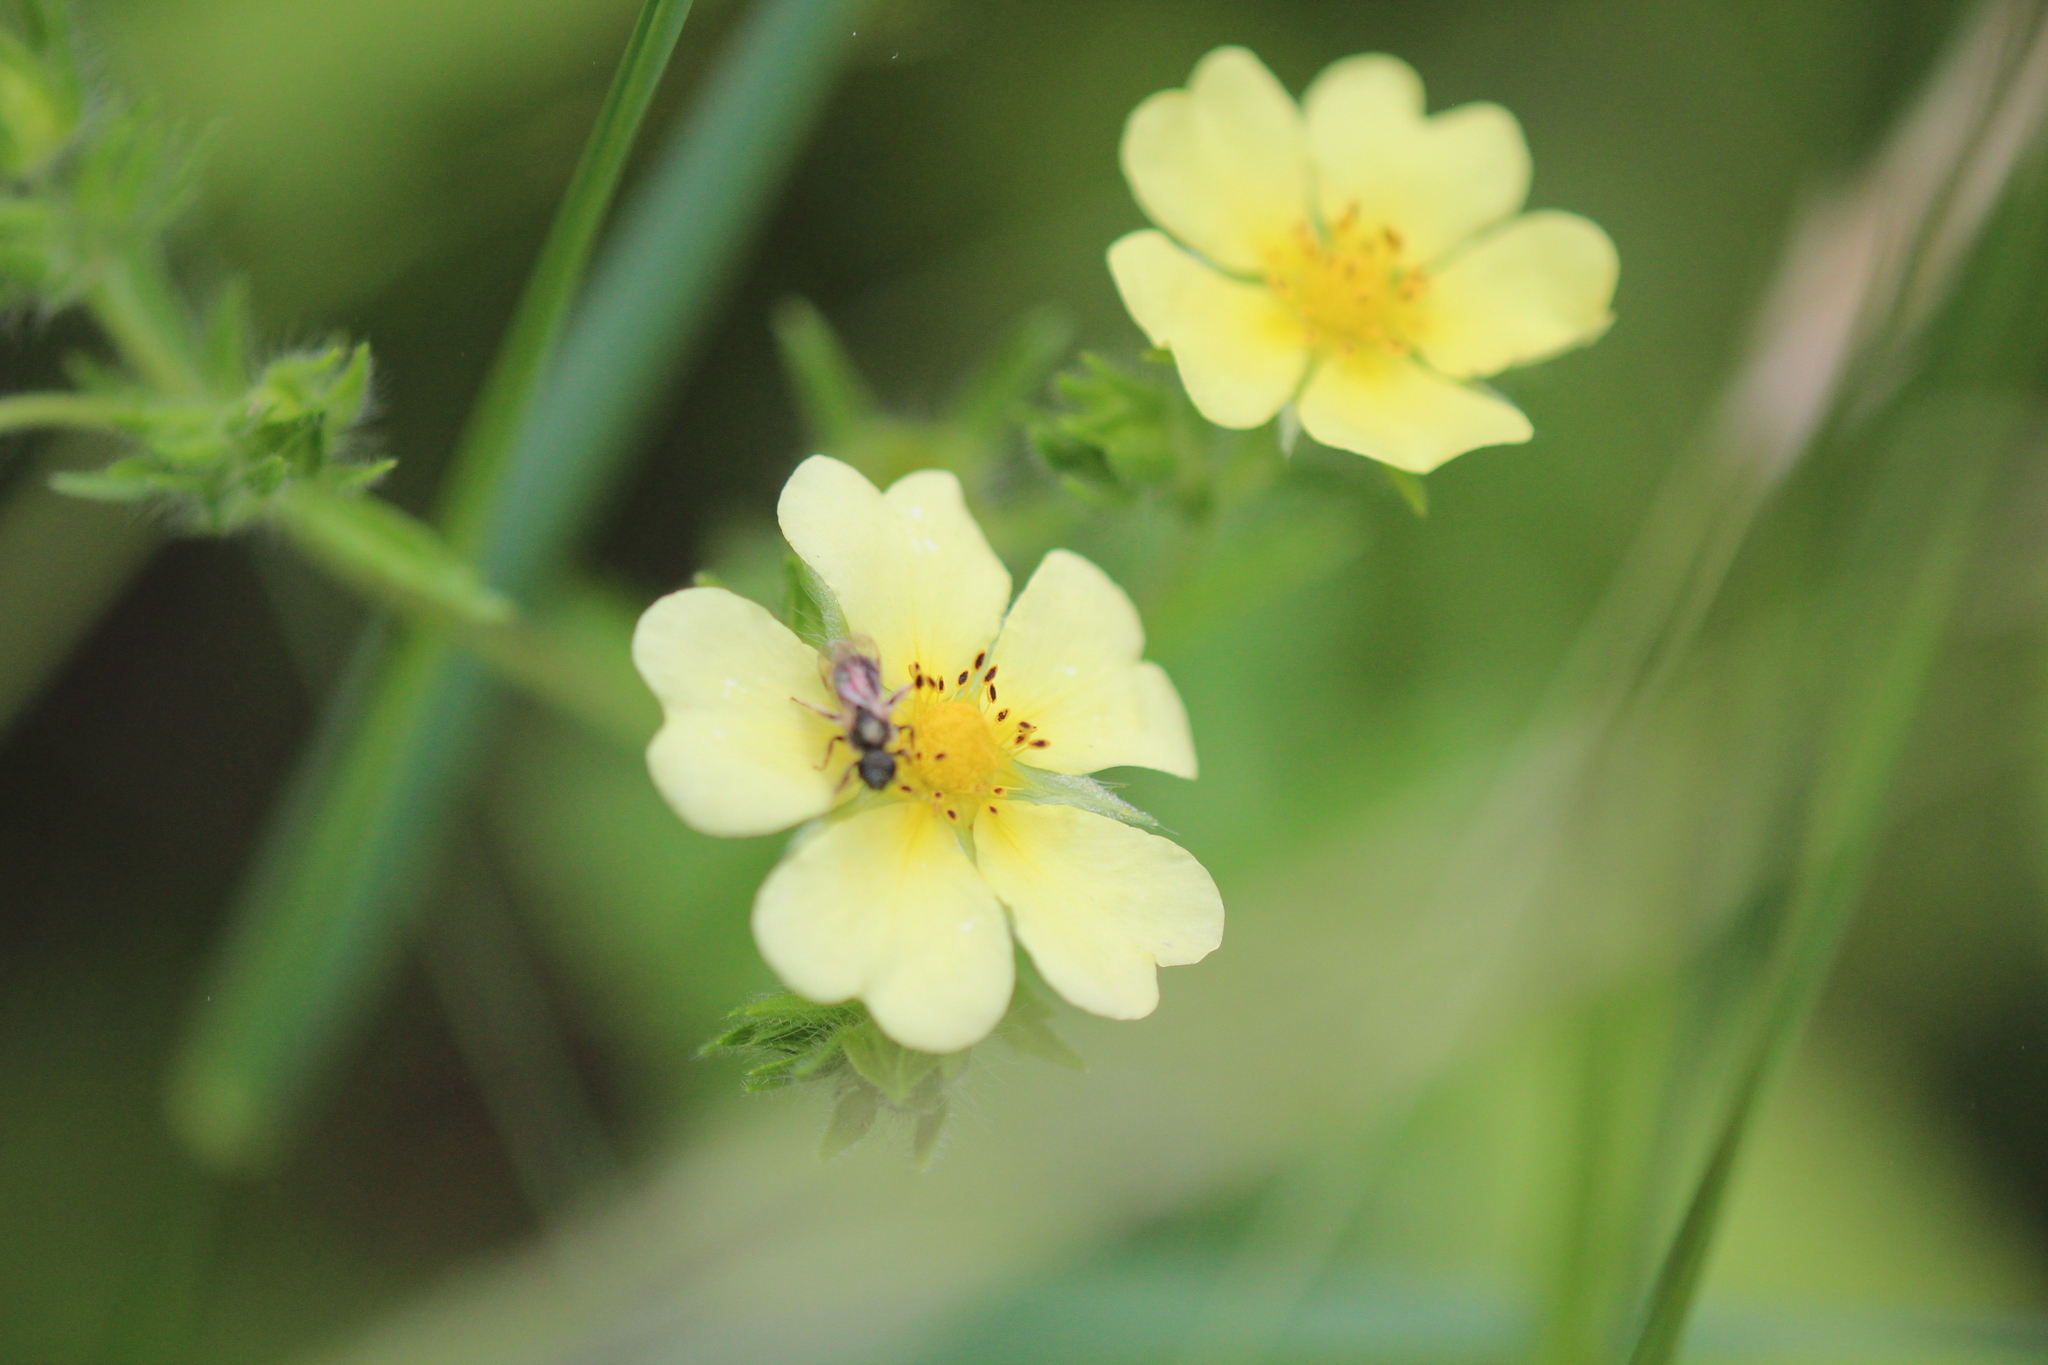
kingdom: Plantae
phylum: Tracheophyta
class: Magnoliopsida
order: Rosales
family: Rosaceae
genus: Potentilla
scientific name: Potentilla recta
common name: Sulphur cinquefoil
